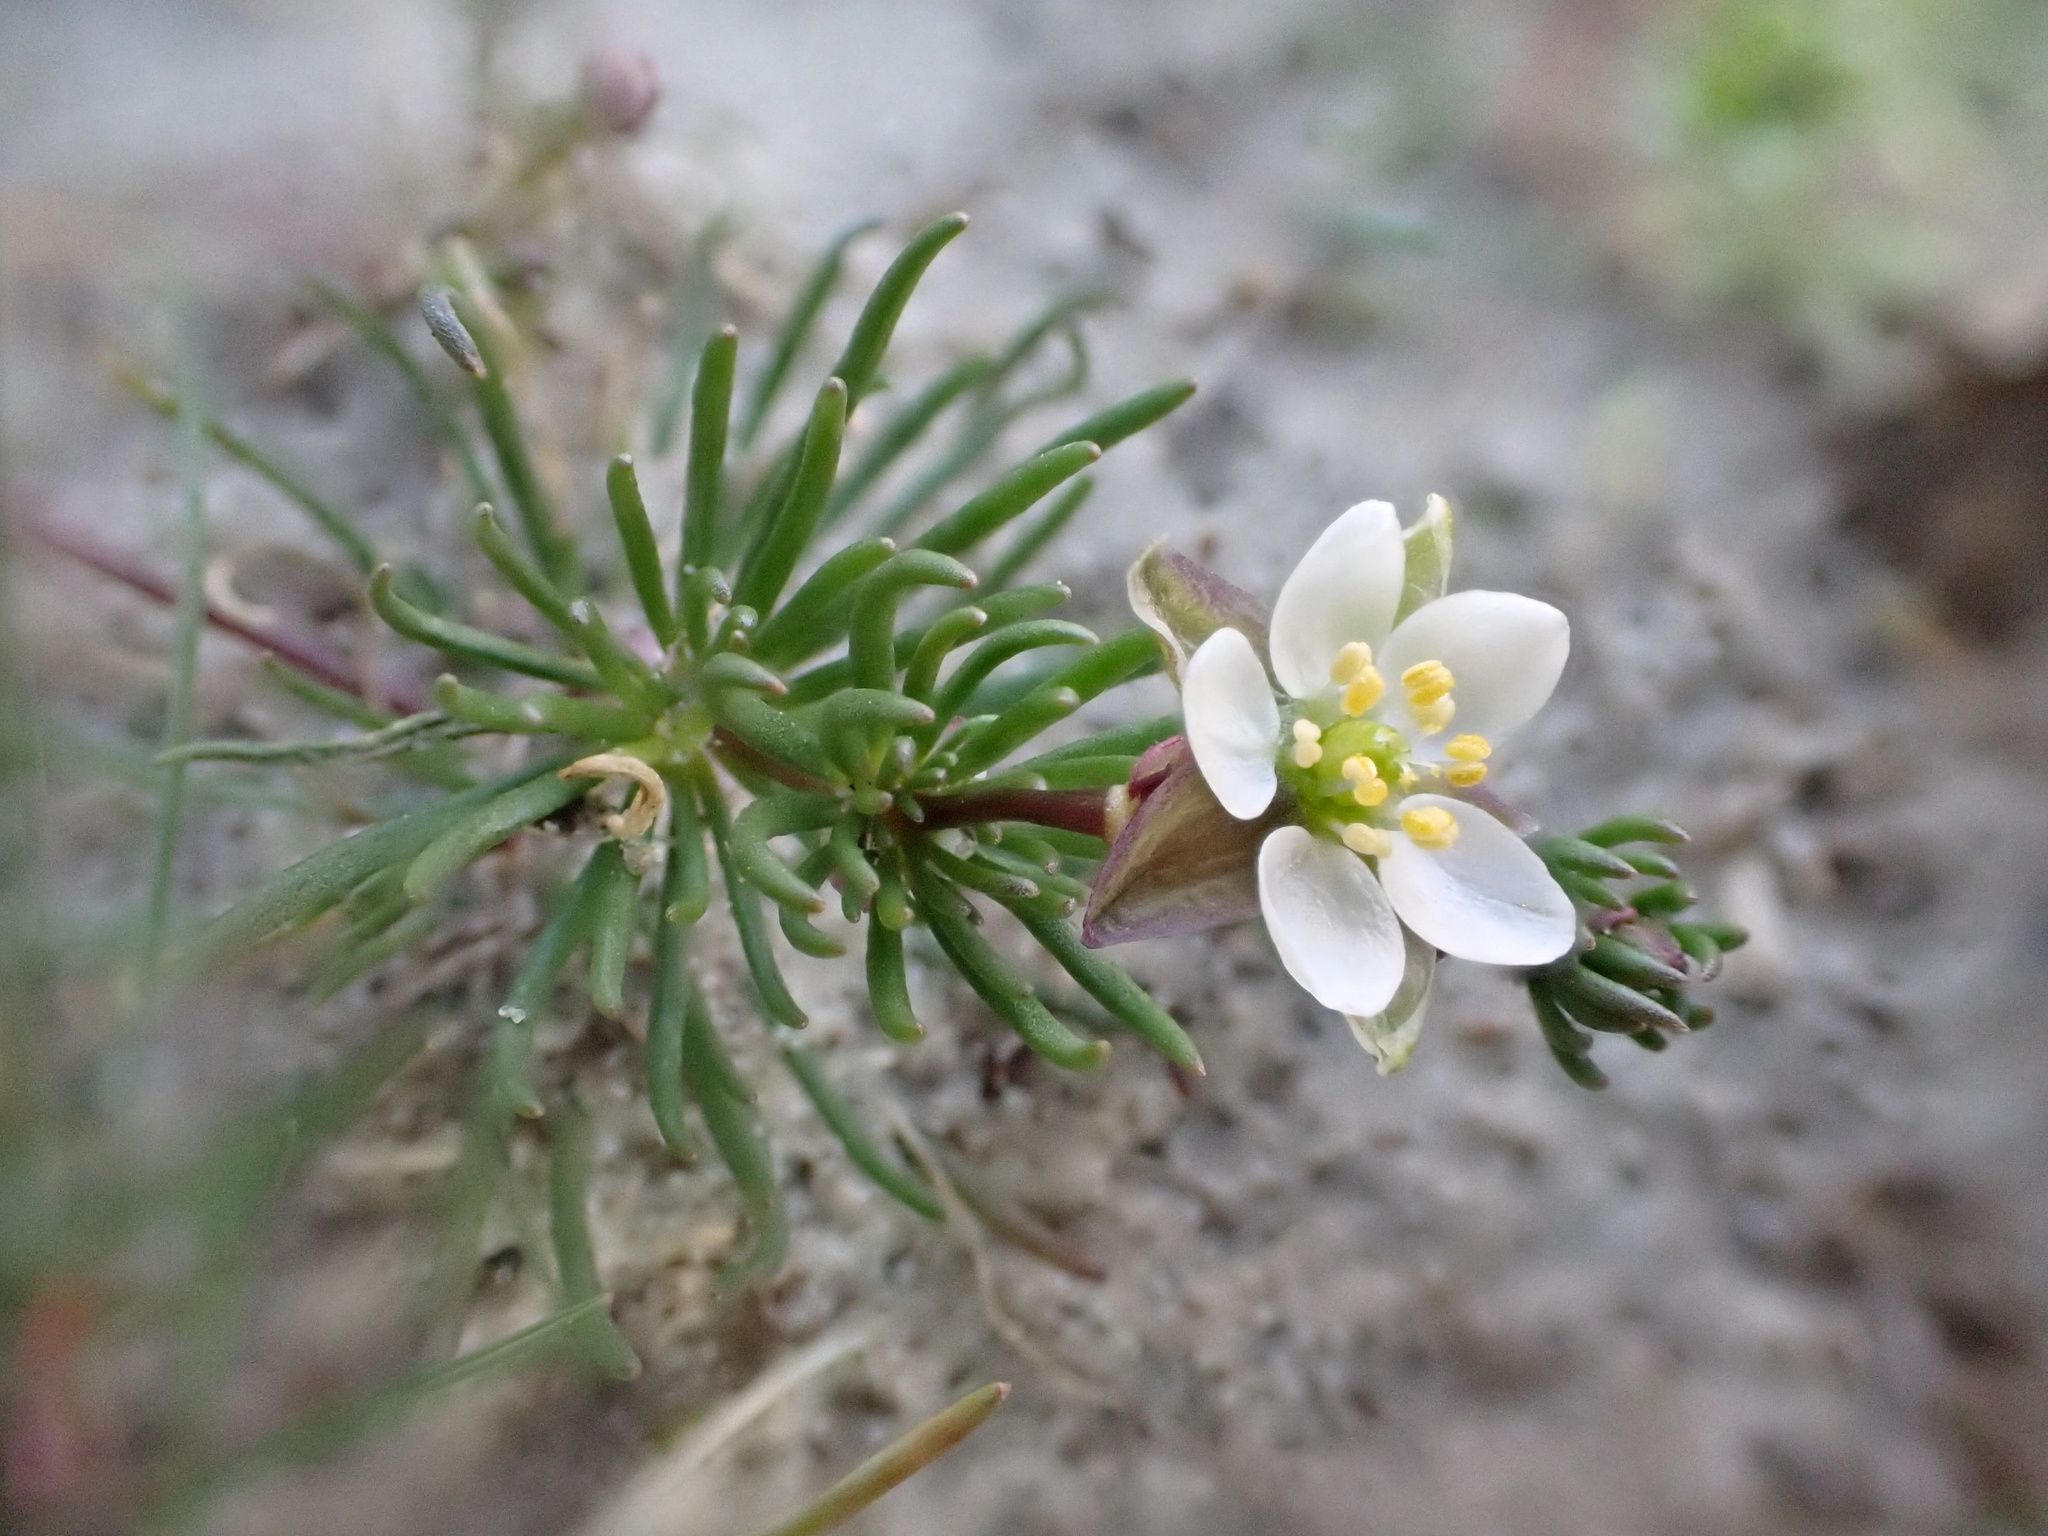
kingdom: Plantae
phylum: Tracheophyta
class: Magnoliopsida
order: Caryophyllales
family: Caryophyllaceae
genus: Spergula
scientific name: Spergula morisonii
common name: Pearlwort spurrey
